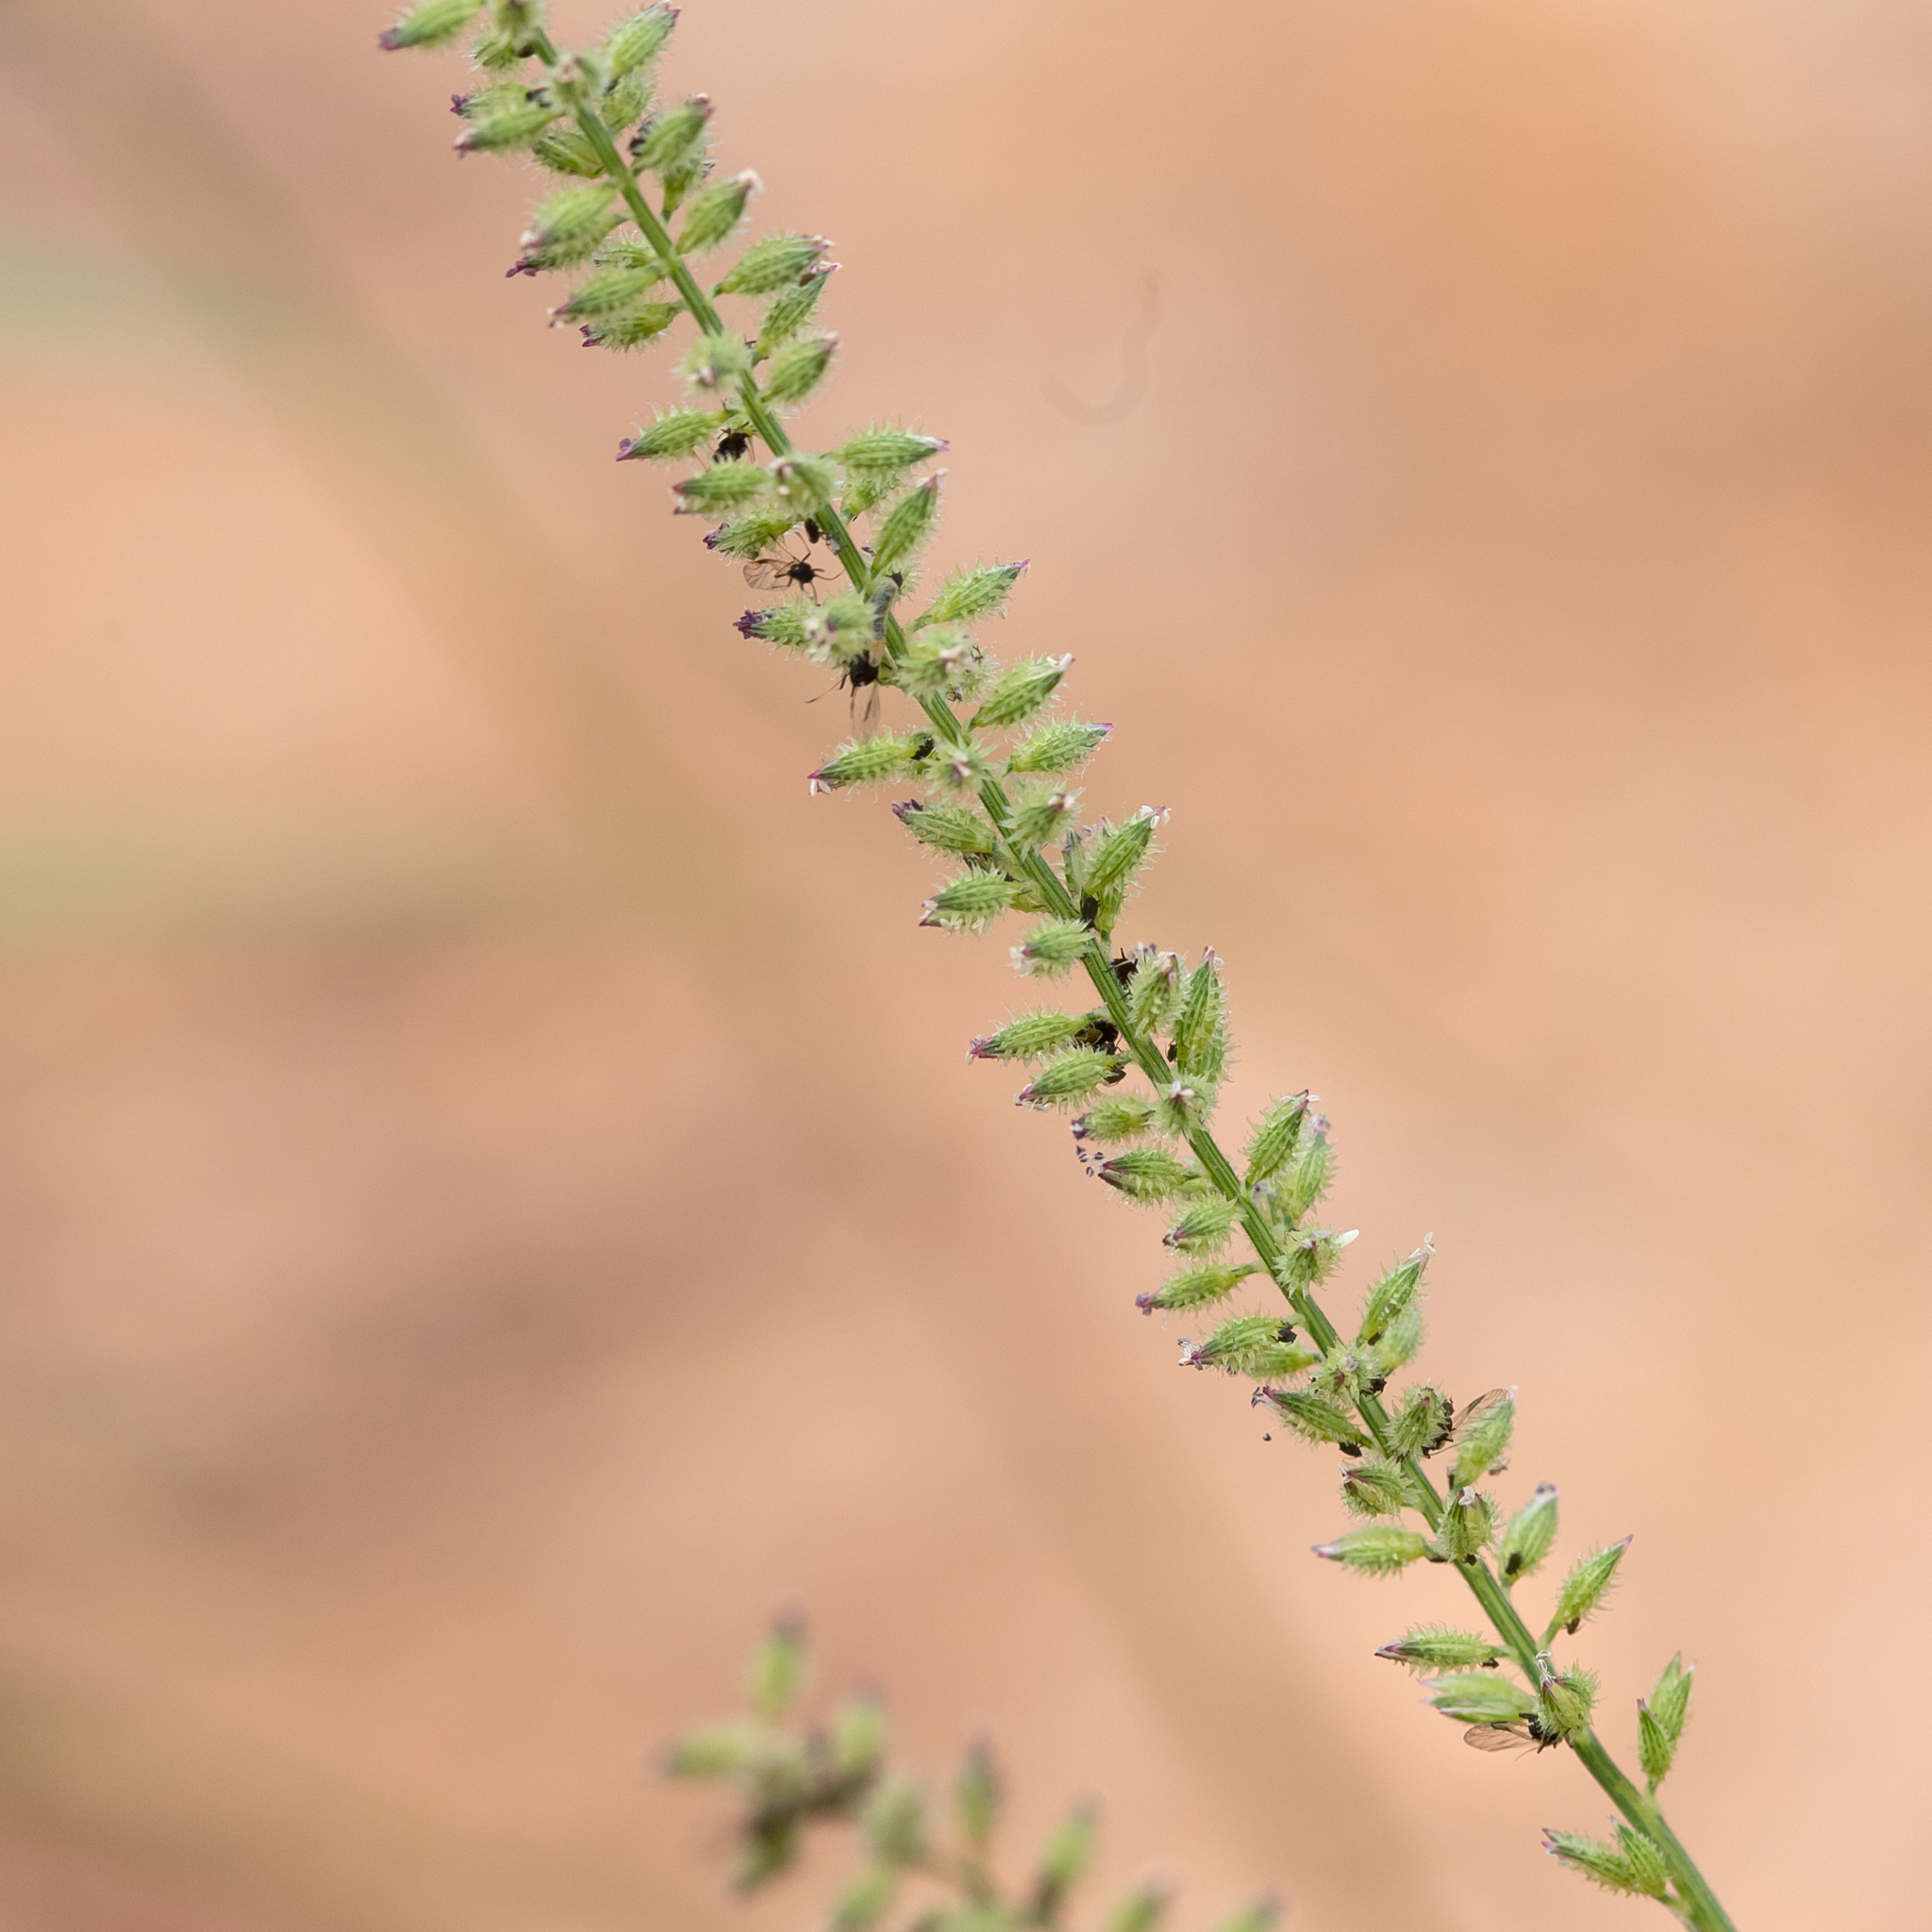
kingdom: Plantae
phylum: Tracheophyta
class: Liliopsida
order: Poales
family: Poaceae
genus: Tragus
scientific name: Tragus australianus
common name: Australian bur-grass
